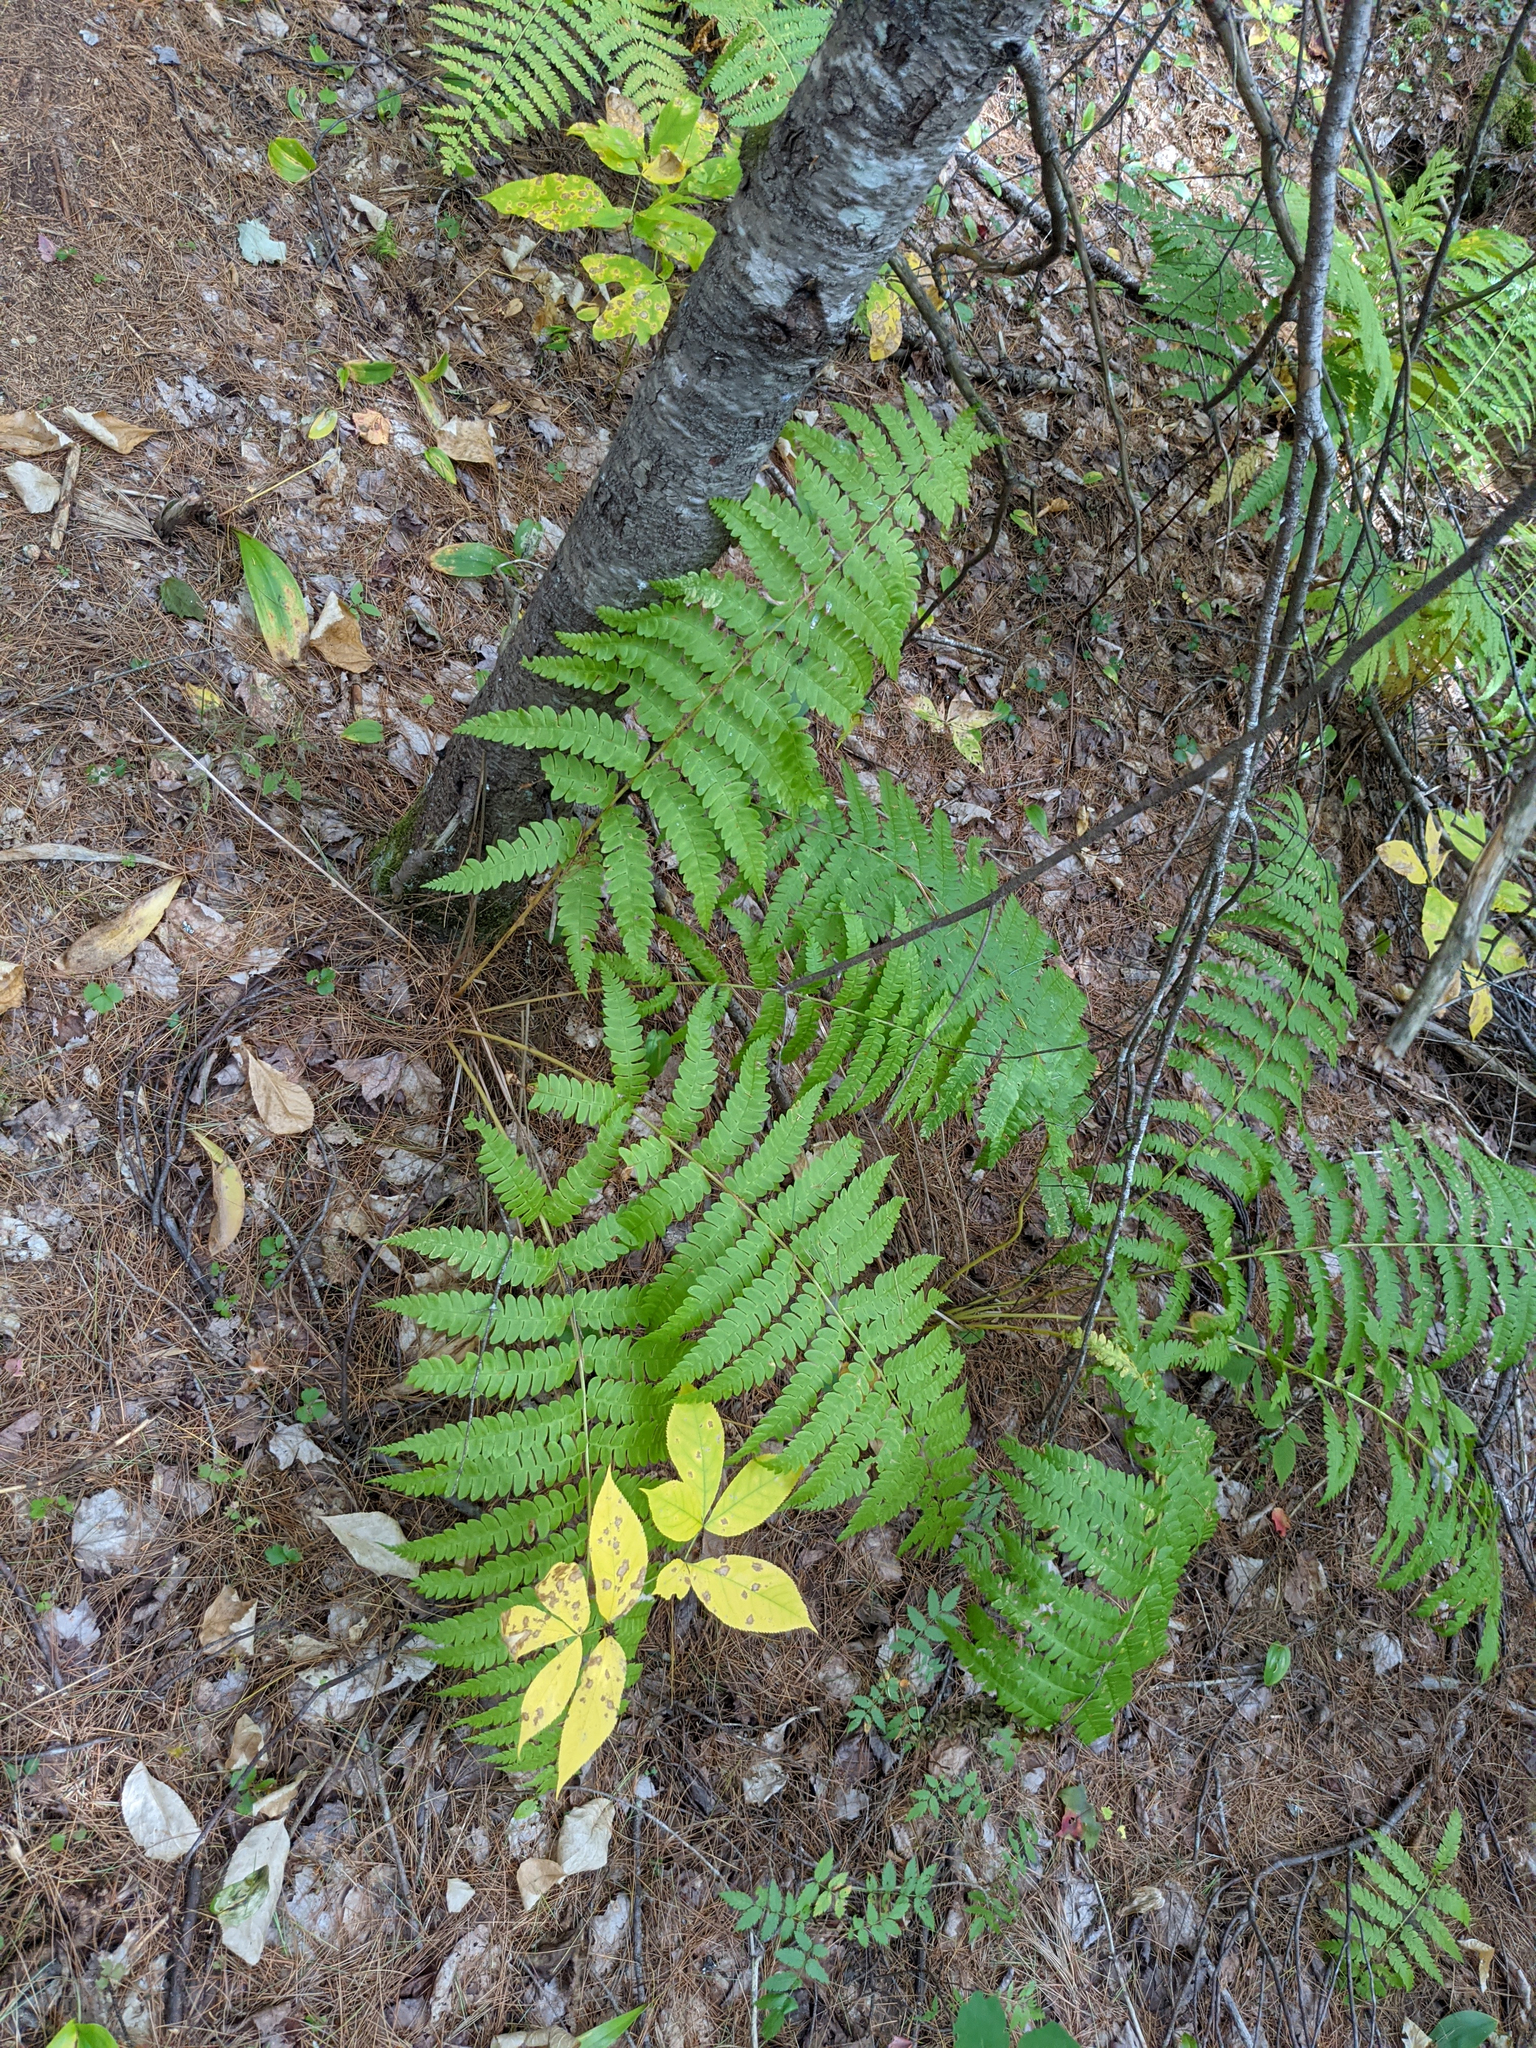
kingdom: Plantae
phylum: Tracheophyta
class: Magnoliopsida
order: Apiales
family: Araliaceae
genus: Aralia
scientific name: Aralia nudicaulis
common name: Wild sarsaparilla
